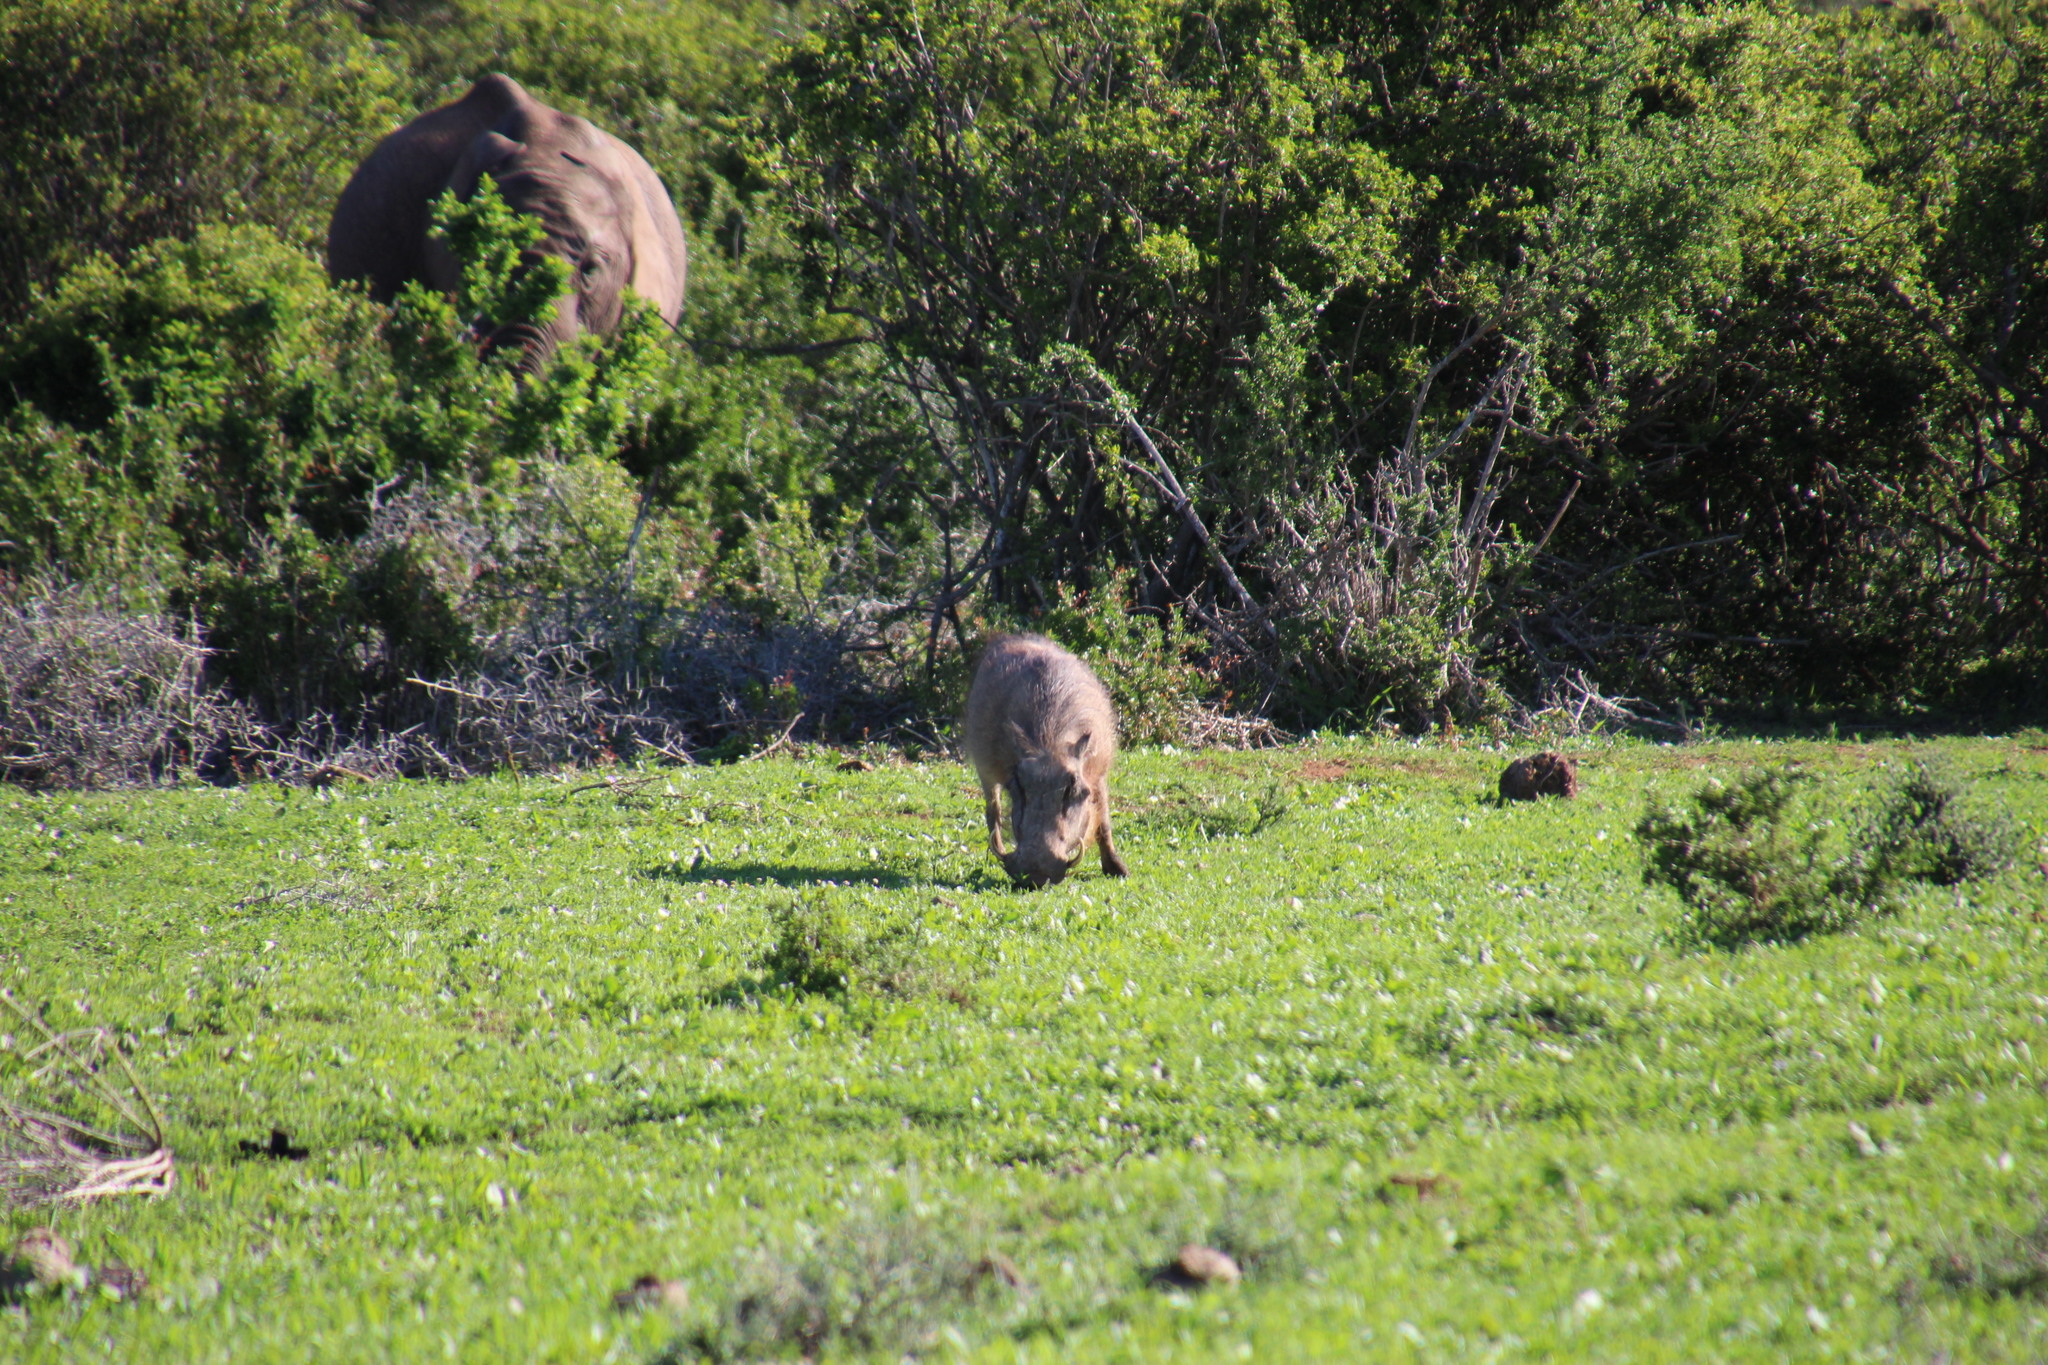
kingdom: Animalia
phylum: Chordata
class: Mammalia
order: Artiodactyla
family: Suidae
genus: Phacochoerus
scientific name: Phacochoerus africanus
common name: Common warthog
